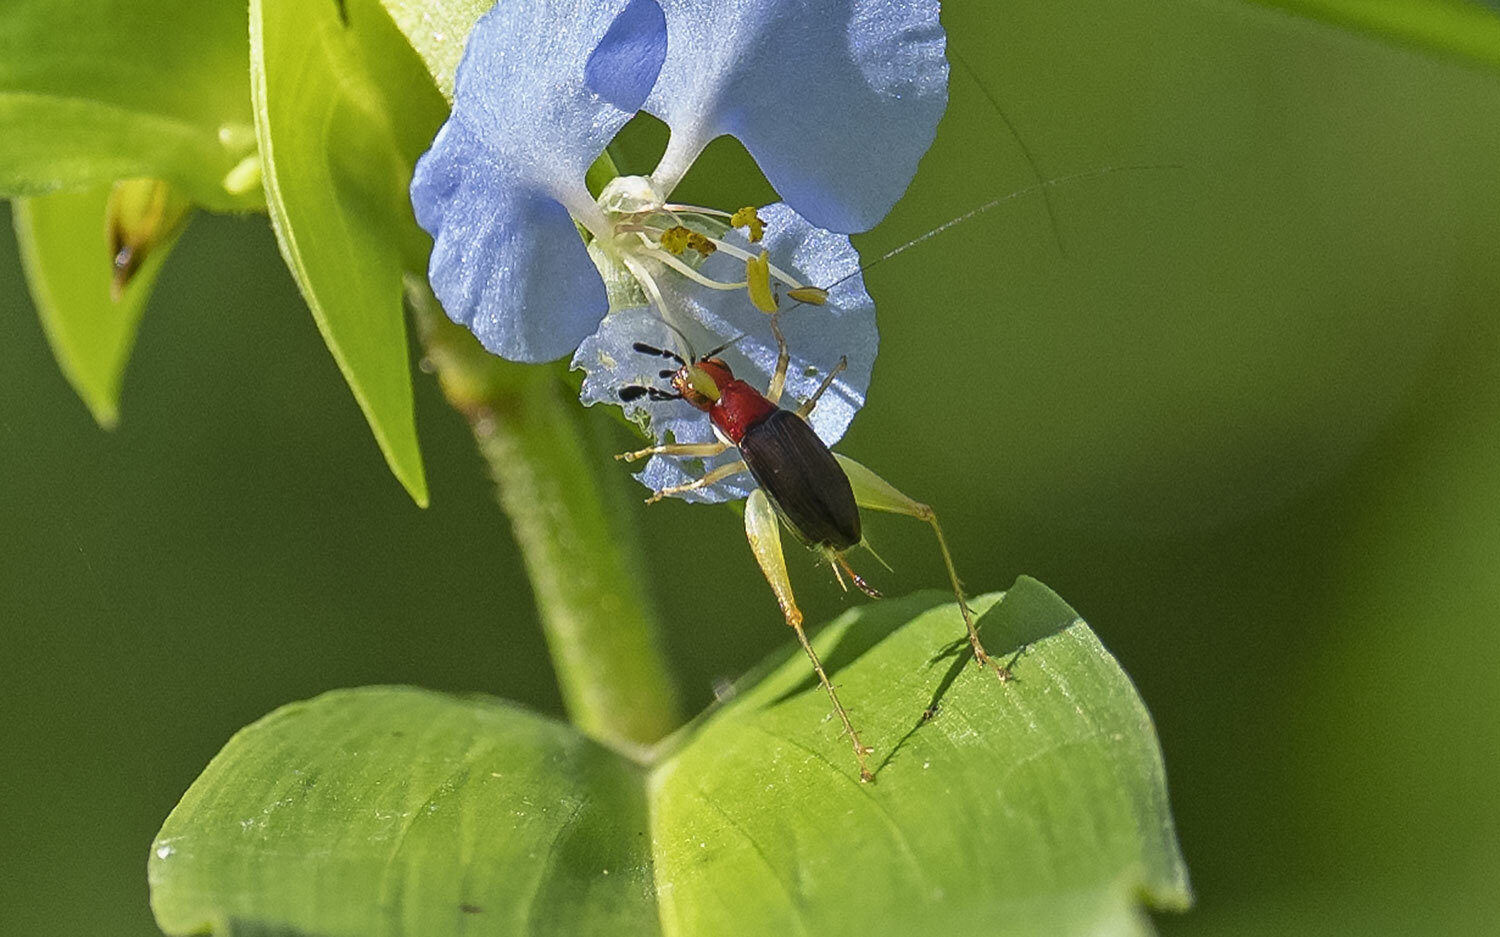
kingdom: Animalia
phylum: Arthropoda
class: Insecta
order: Orthoptera
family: Trigonidiidae
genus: Phyllopalpus
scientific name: Phyllopalpus pulchellus
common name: Handsome trig
